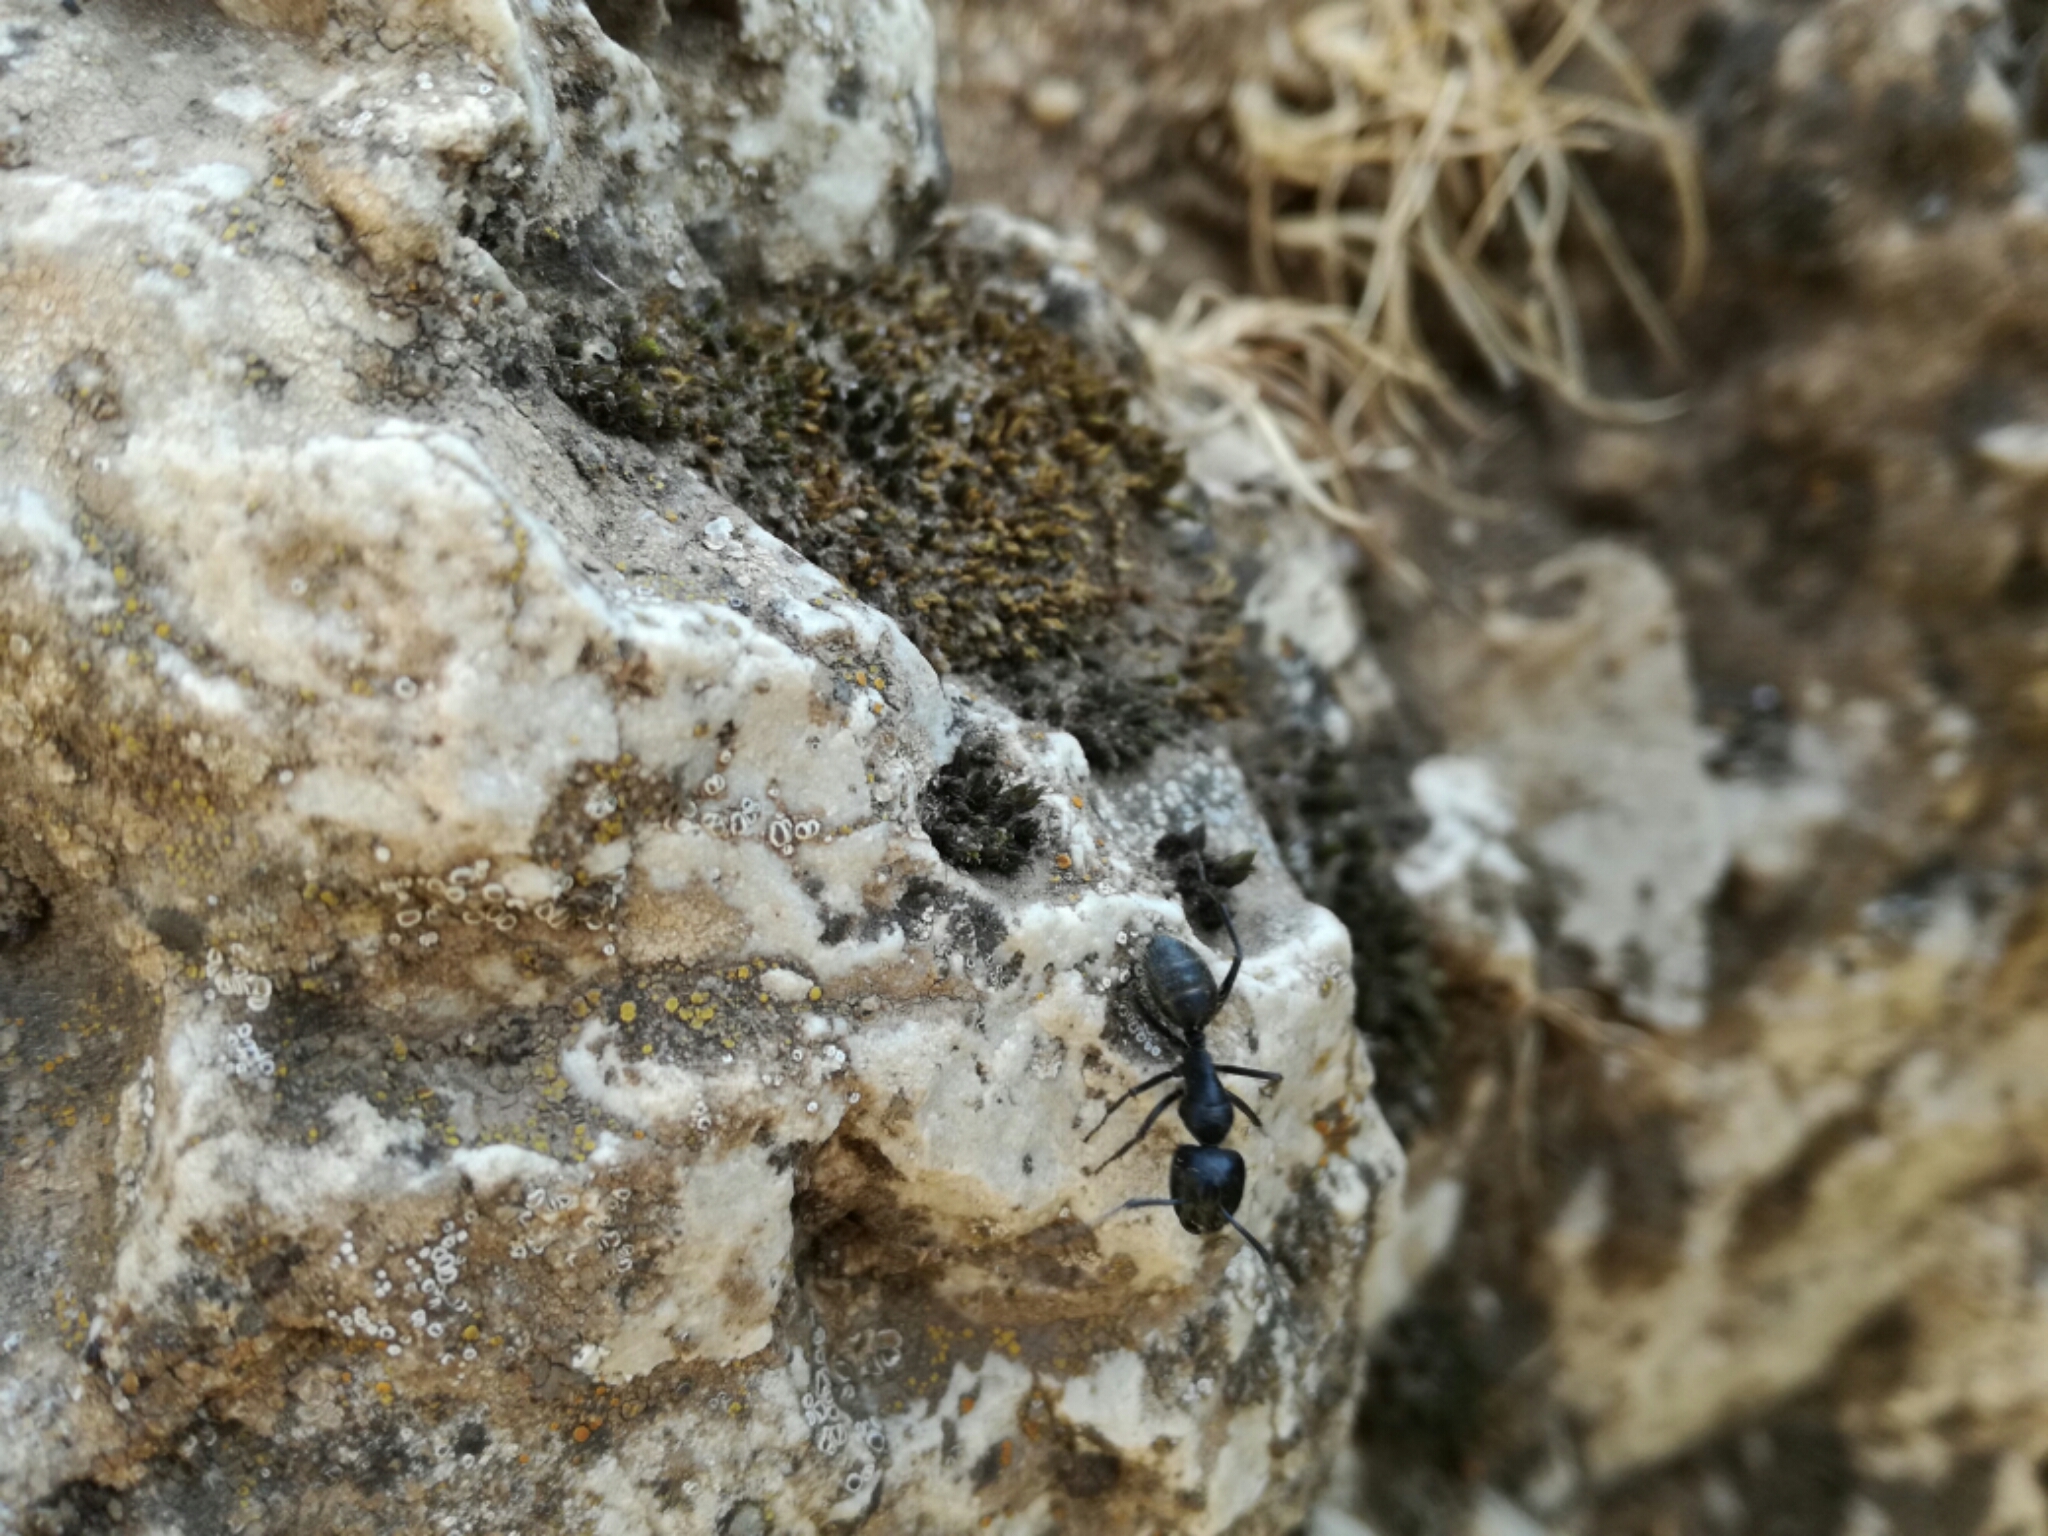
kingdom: Animalia
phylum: Arthropoda
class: Insecta
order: Hymenoptera
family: Formicidae
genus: Camponotus
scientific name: Camponotus vagus
